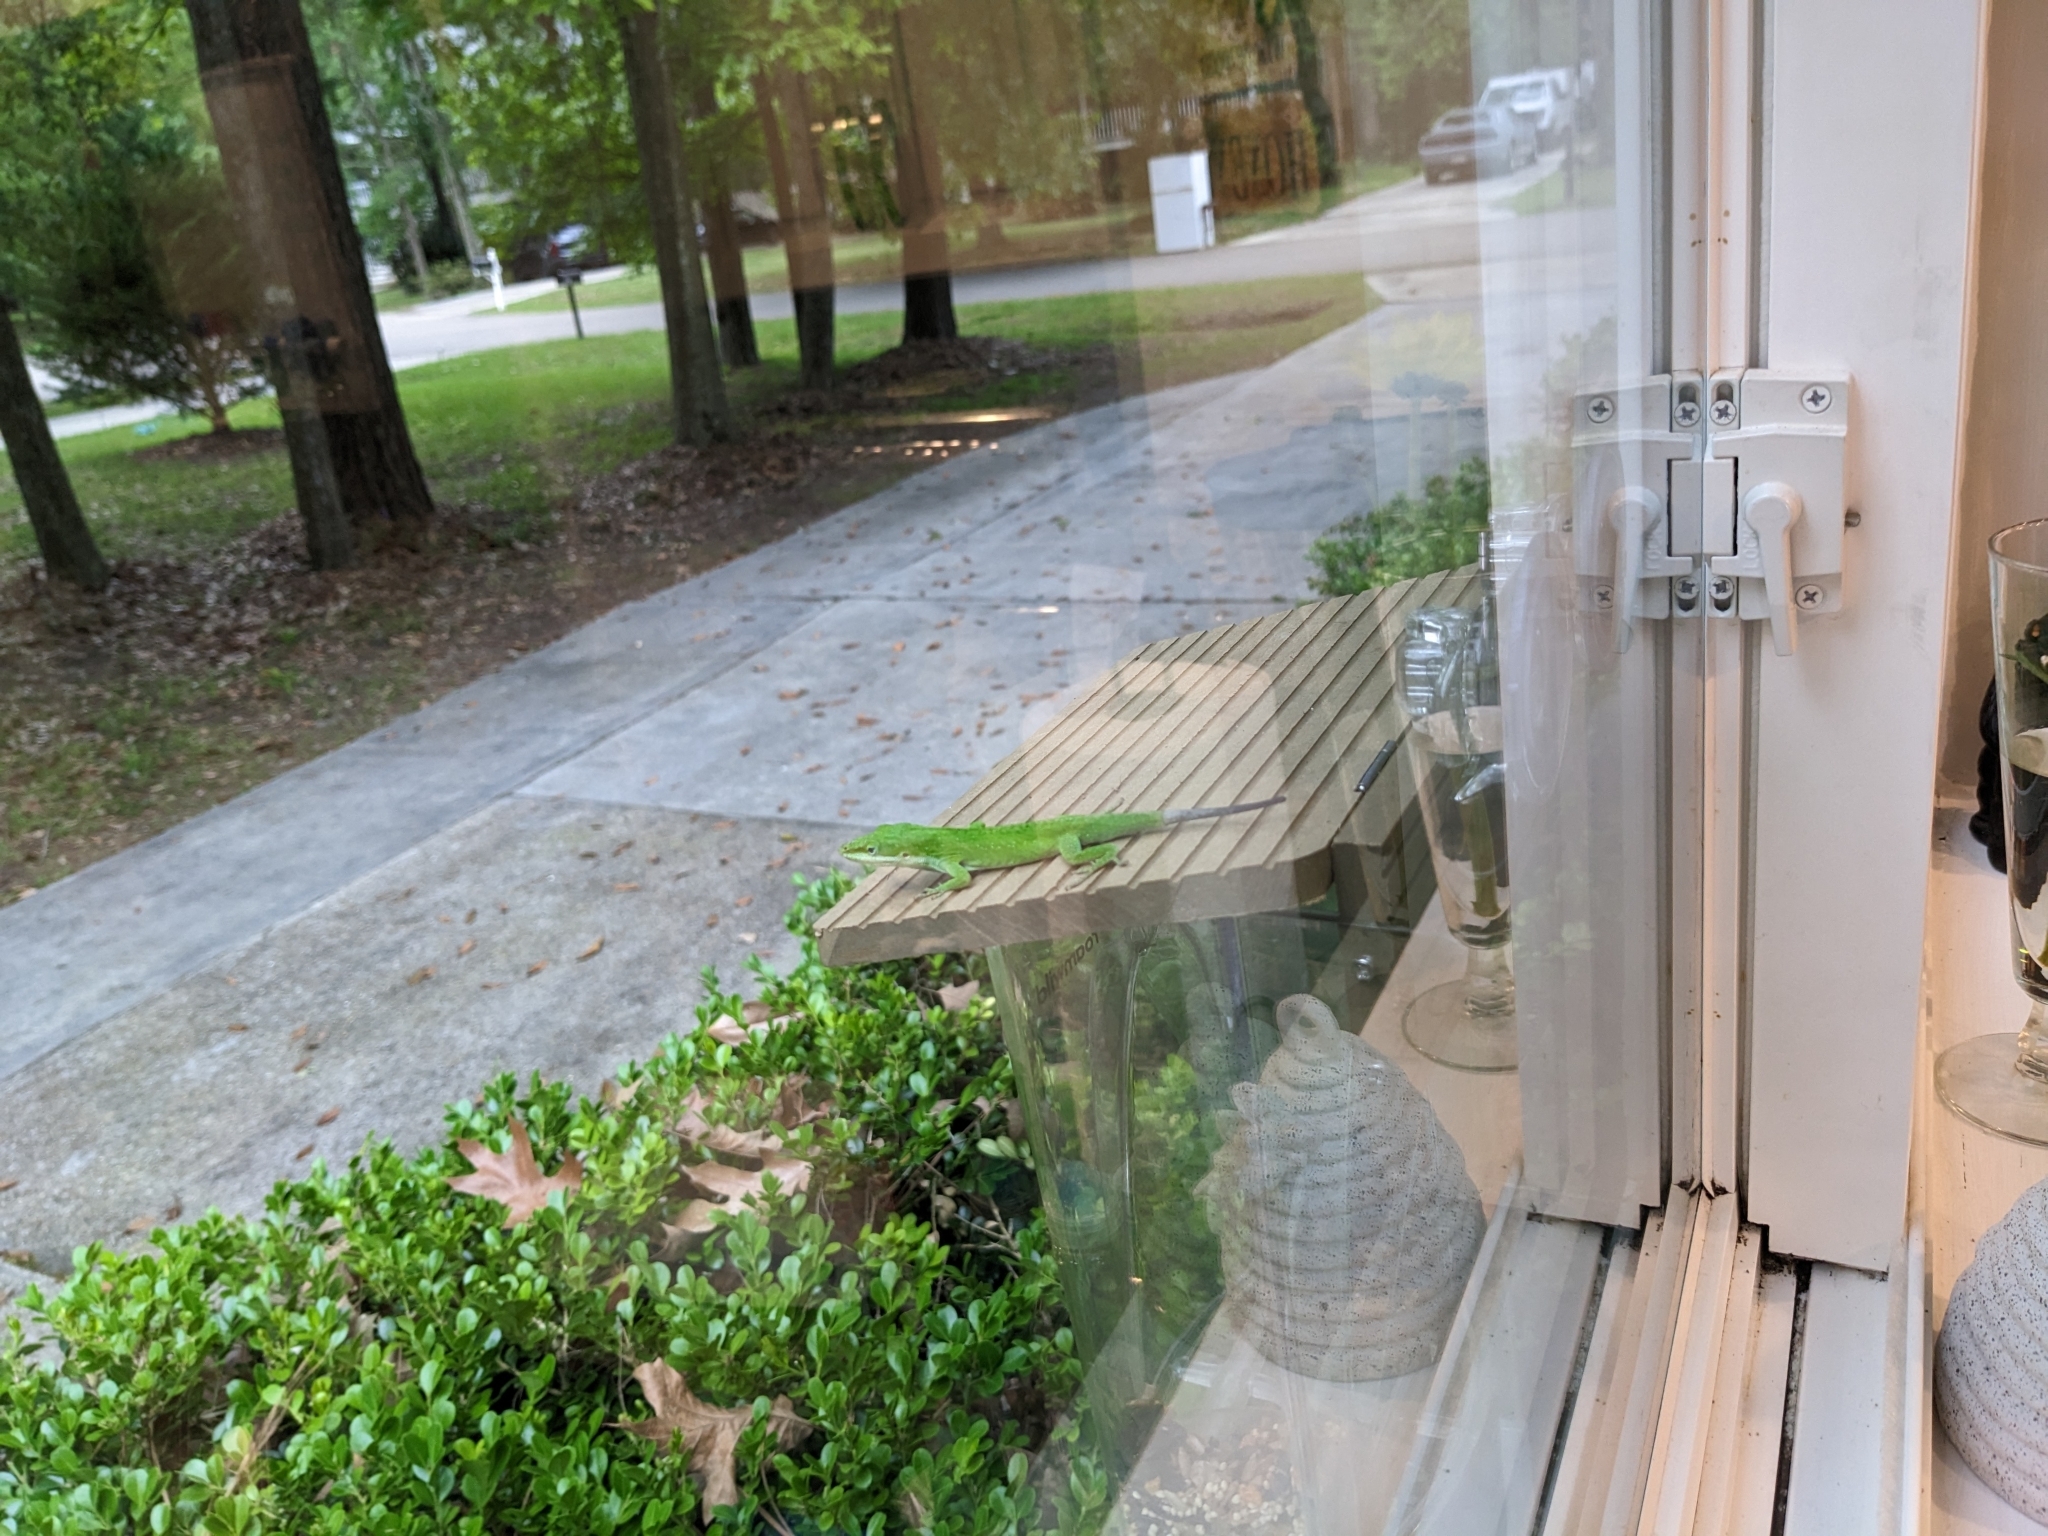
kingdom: Animalia
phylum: Chordata
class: Squamata
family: Dactyloidae
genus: Anolis
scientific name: Anolis carolinensis
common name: Green anole
